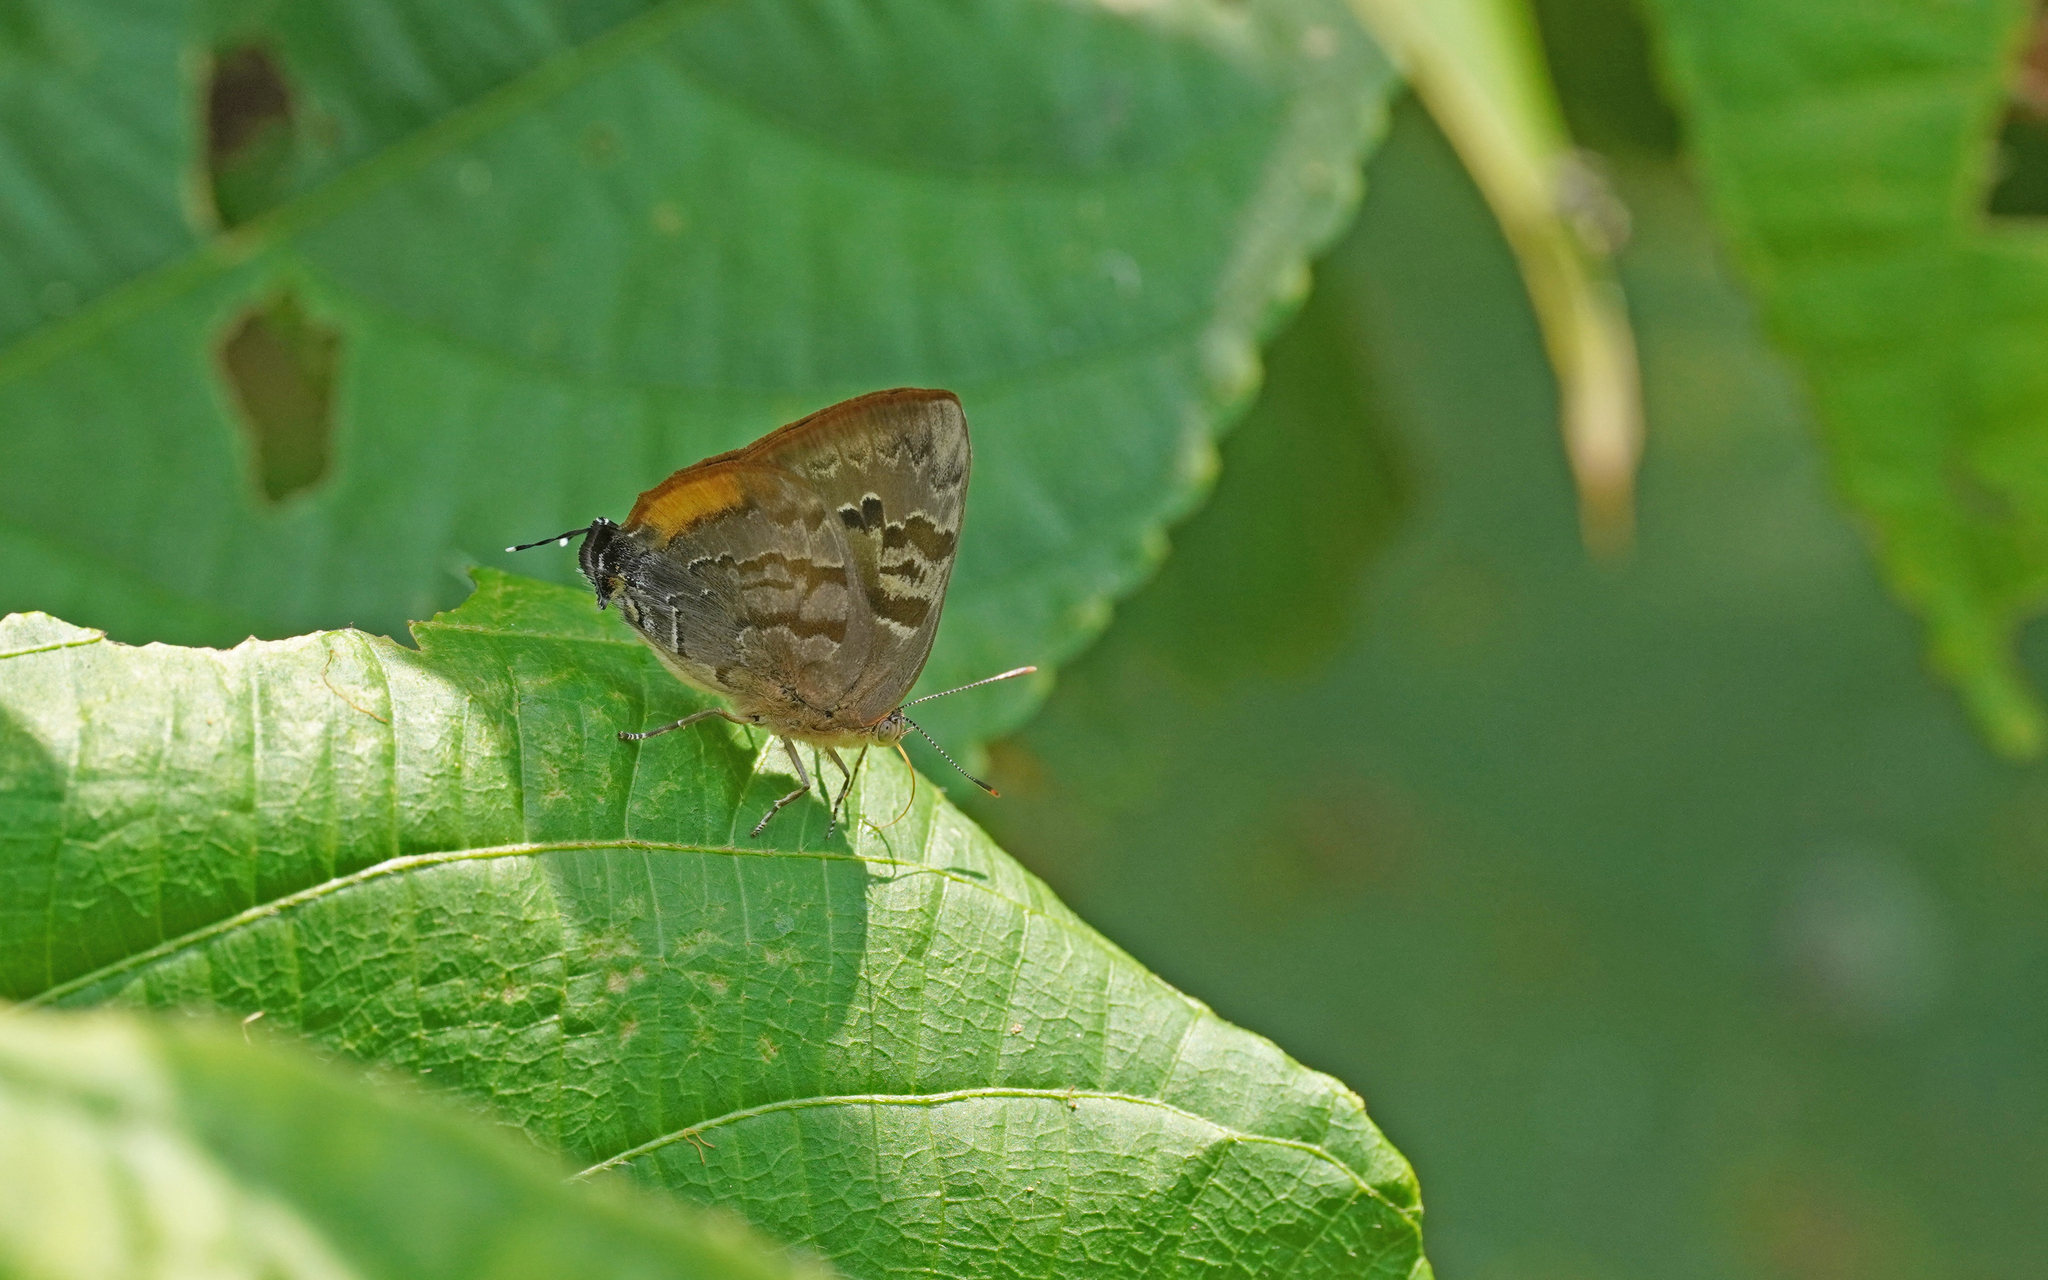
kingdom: Animalia
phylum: Arthropoda
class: Insecta
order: Lepidoptera
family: Lycaenidae
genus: Rekoa
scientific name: Rekoa palegon
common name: Gold-bordered hairstreak
